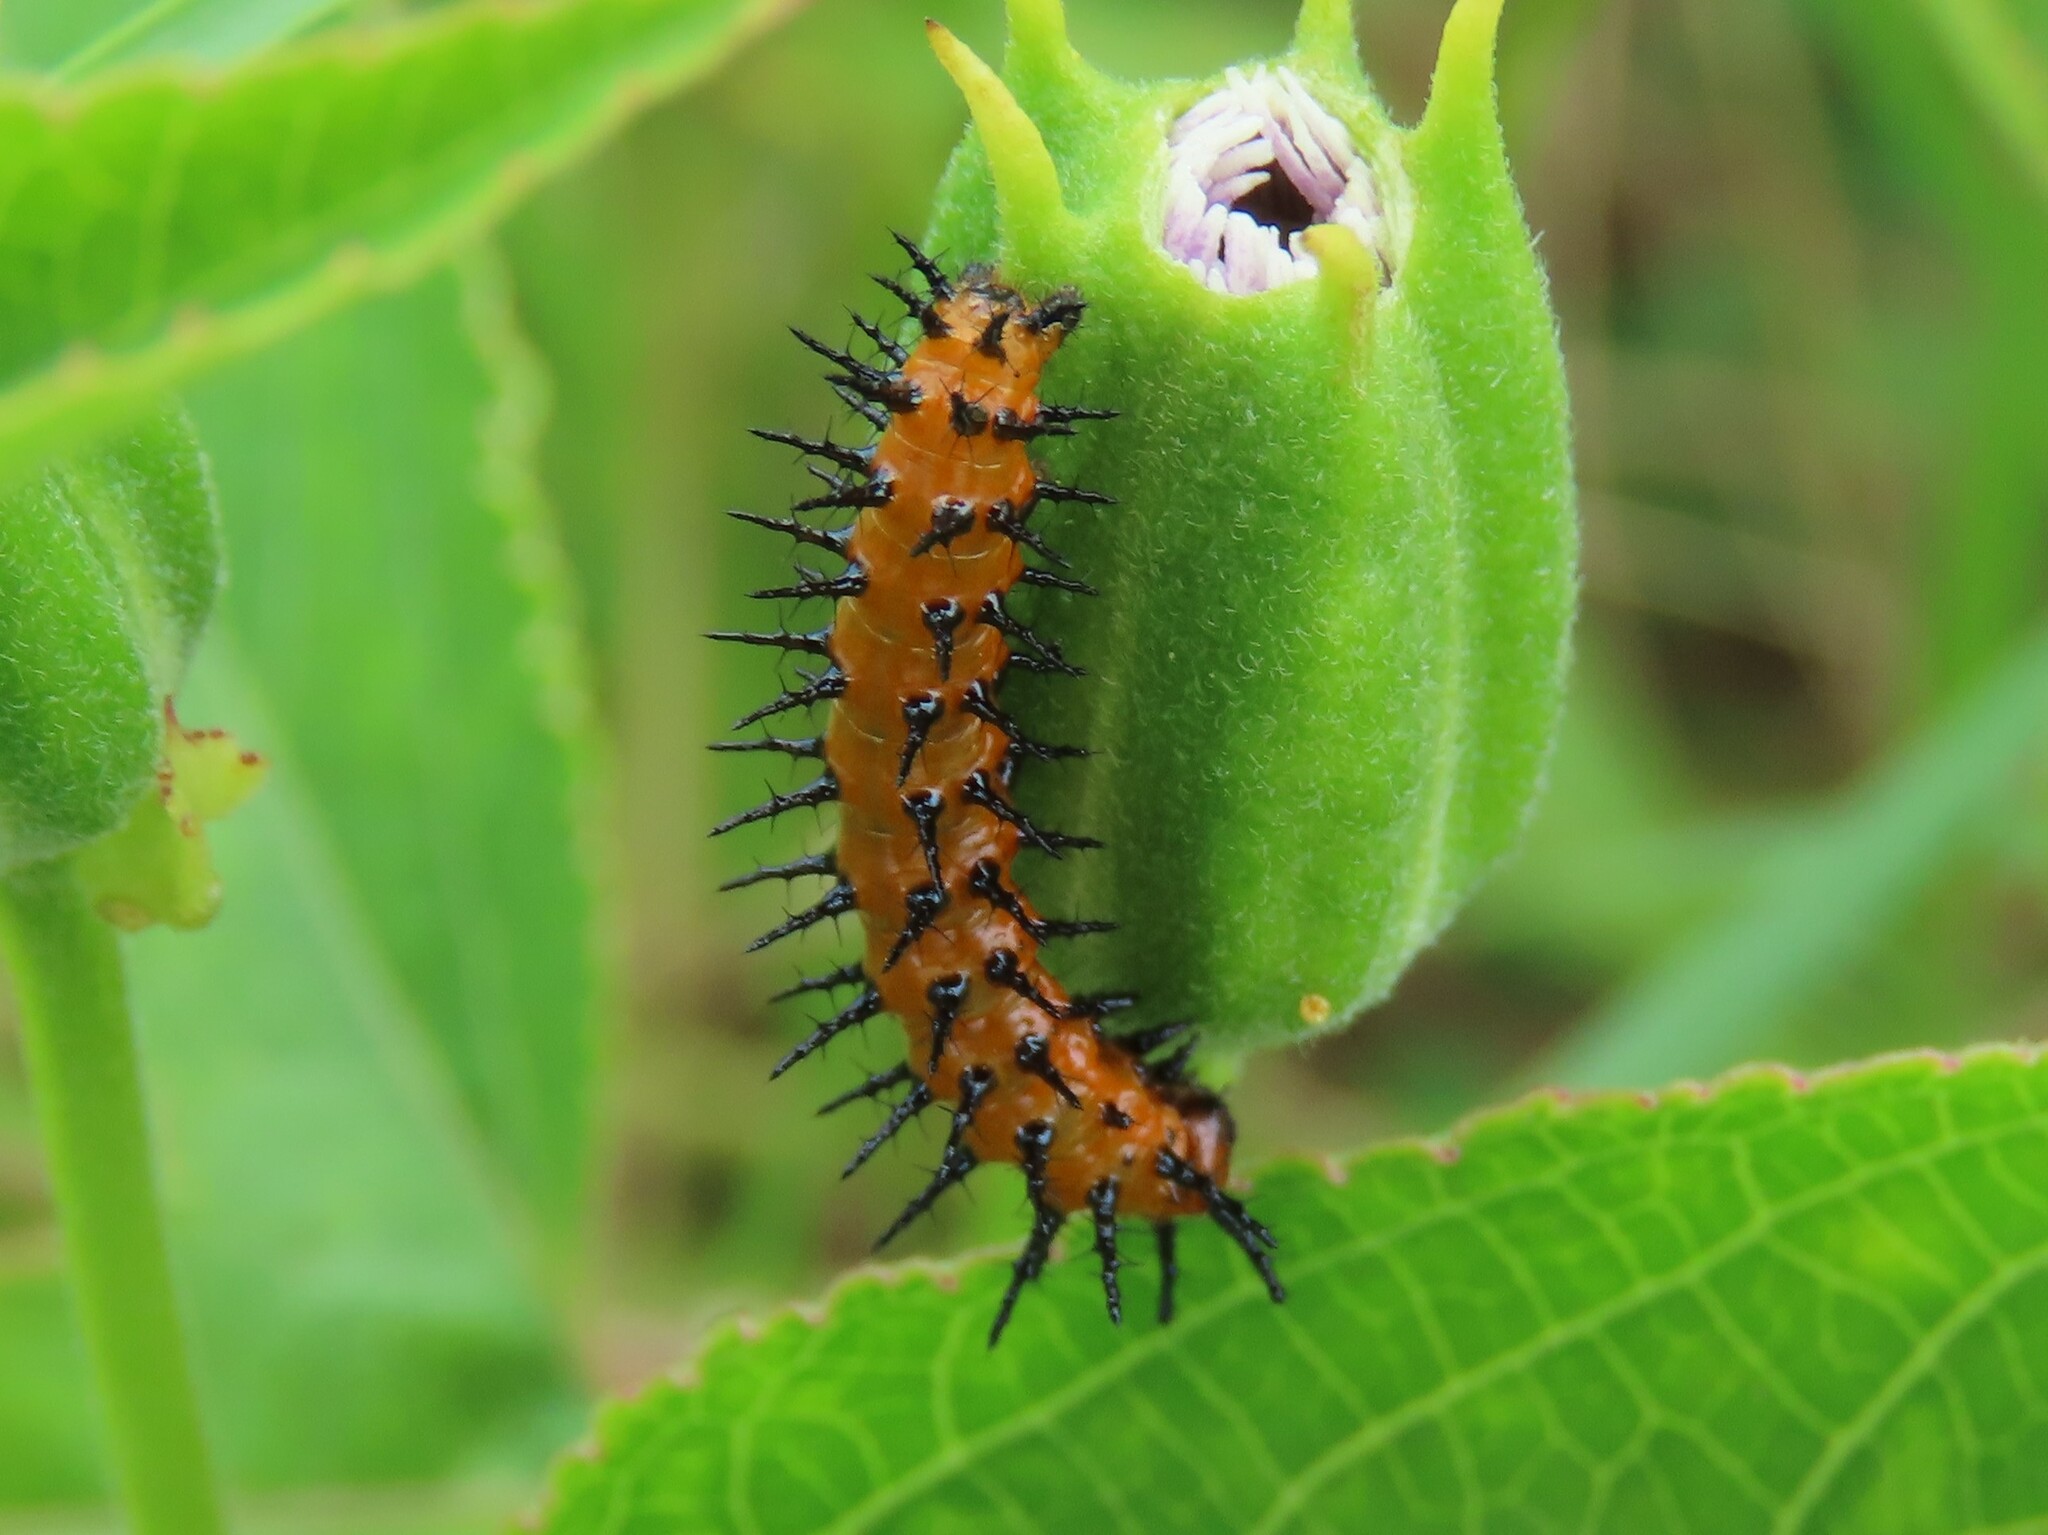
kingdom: Animalia
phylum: Arthropoda
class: Insecta
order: Lepidoptera
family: Nymphalidae
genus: Dione
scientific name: Dione vanillae
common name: Gulf fritillary
